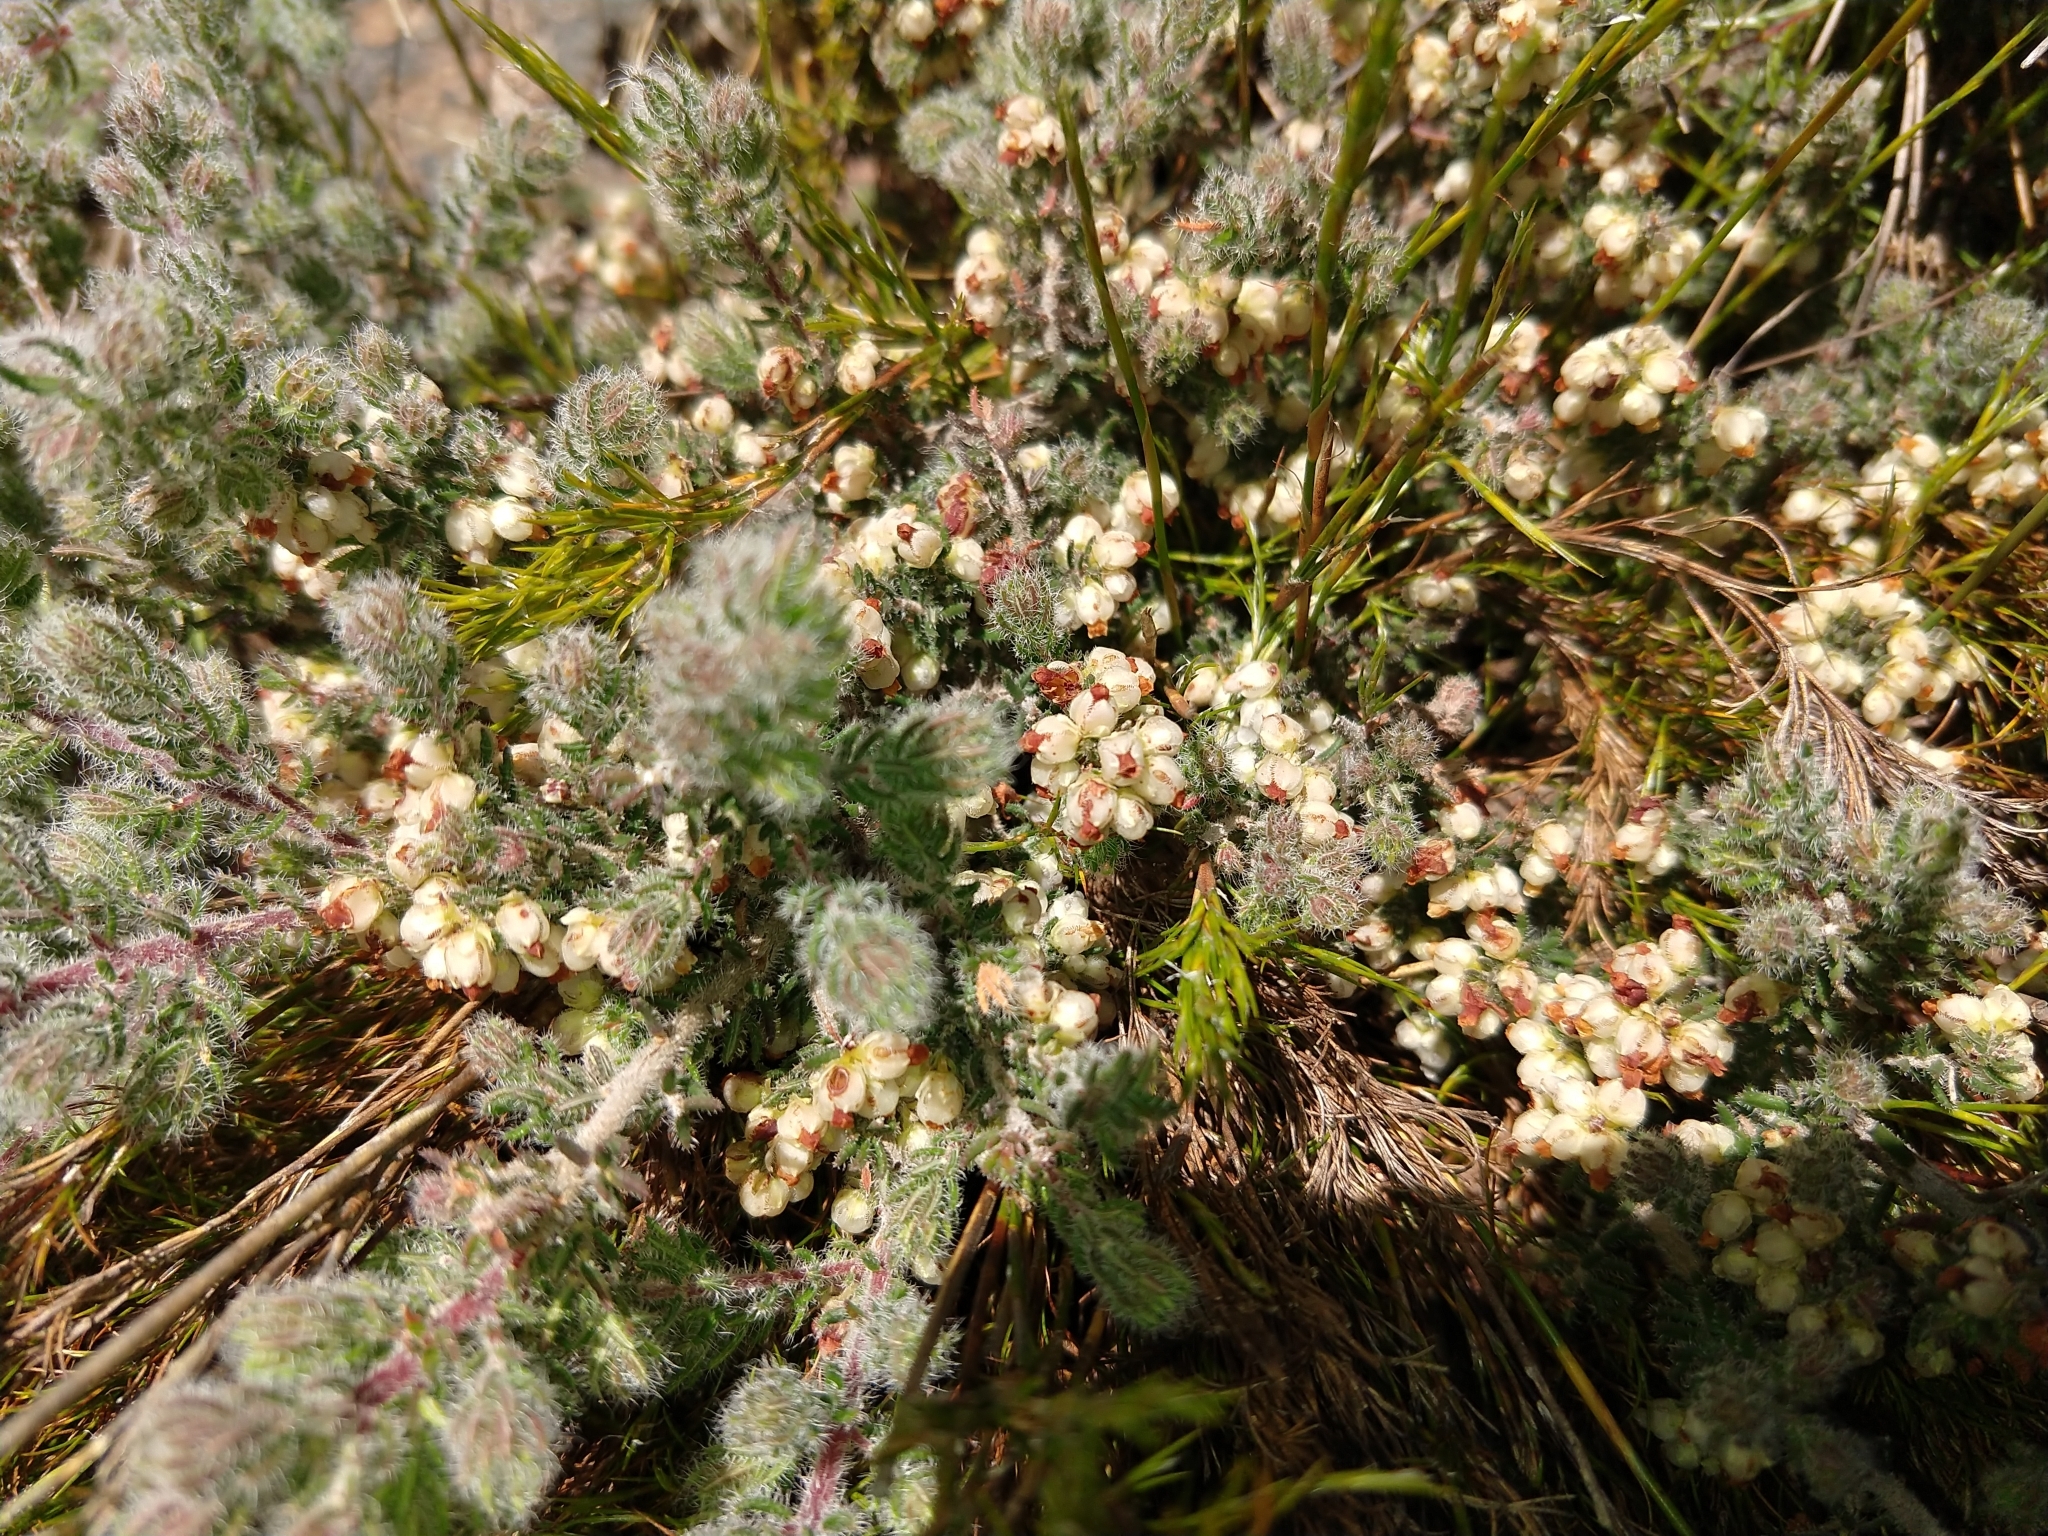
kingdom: Plantae
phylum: Tracheophyta
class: Magnoliopsida
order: Ericales
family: Ericaceae
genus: Erica
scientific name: Erica totta
